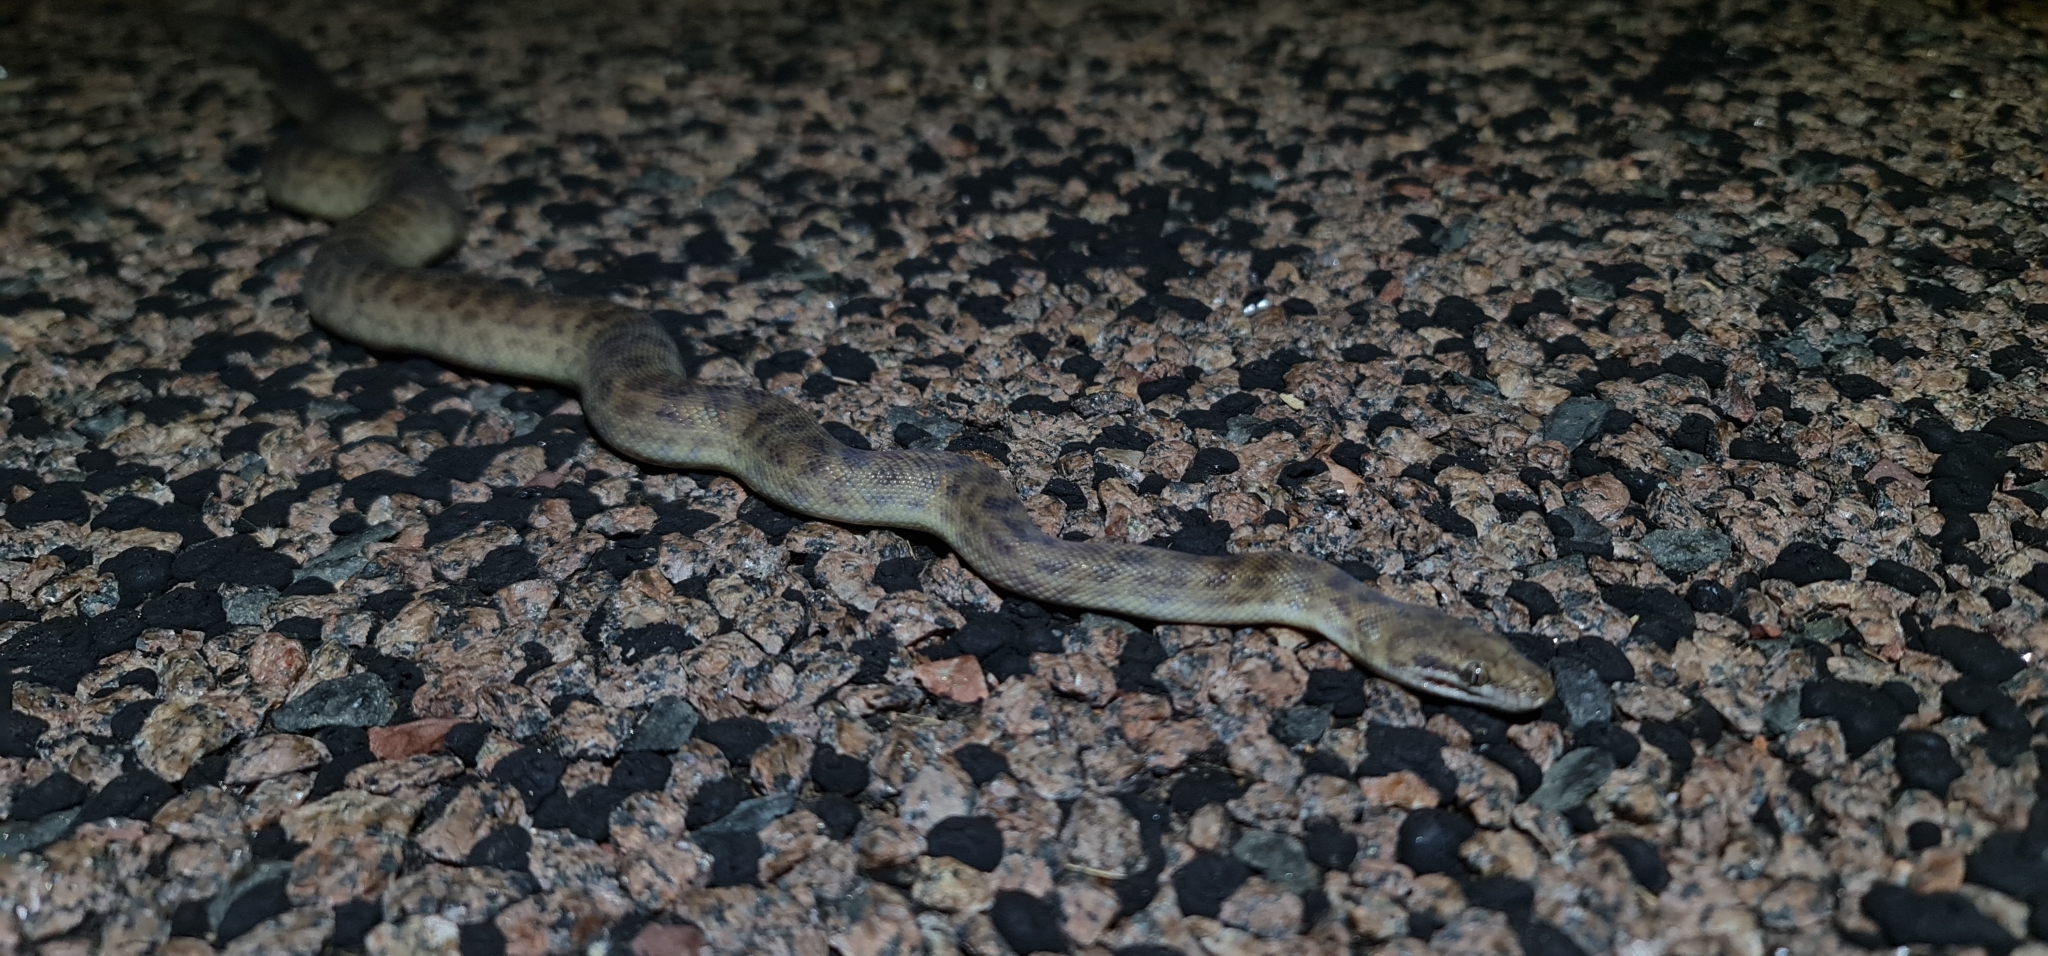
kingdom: Animalia
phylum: Chordata
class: Squamata
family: Pythonidae
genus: Antaresia
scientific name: Antaresia childreni
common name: Children's python
